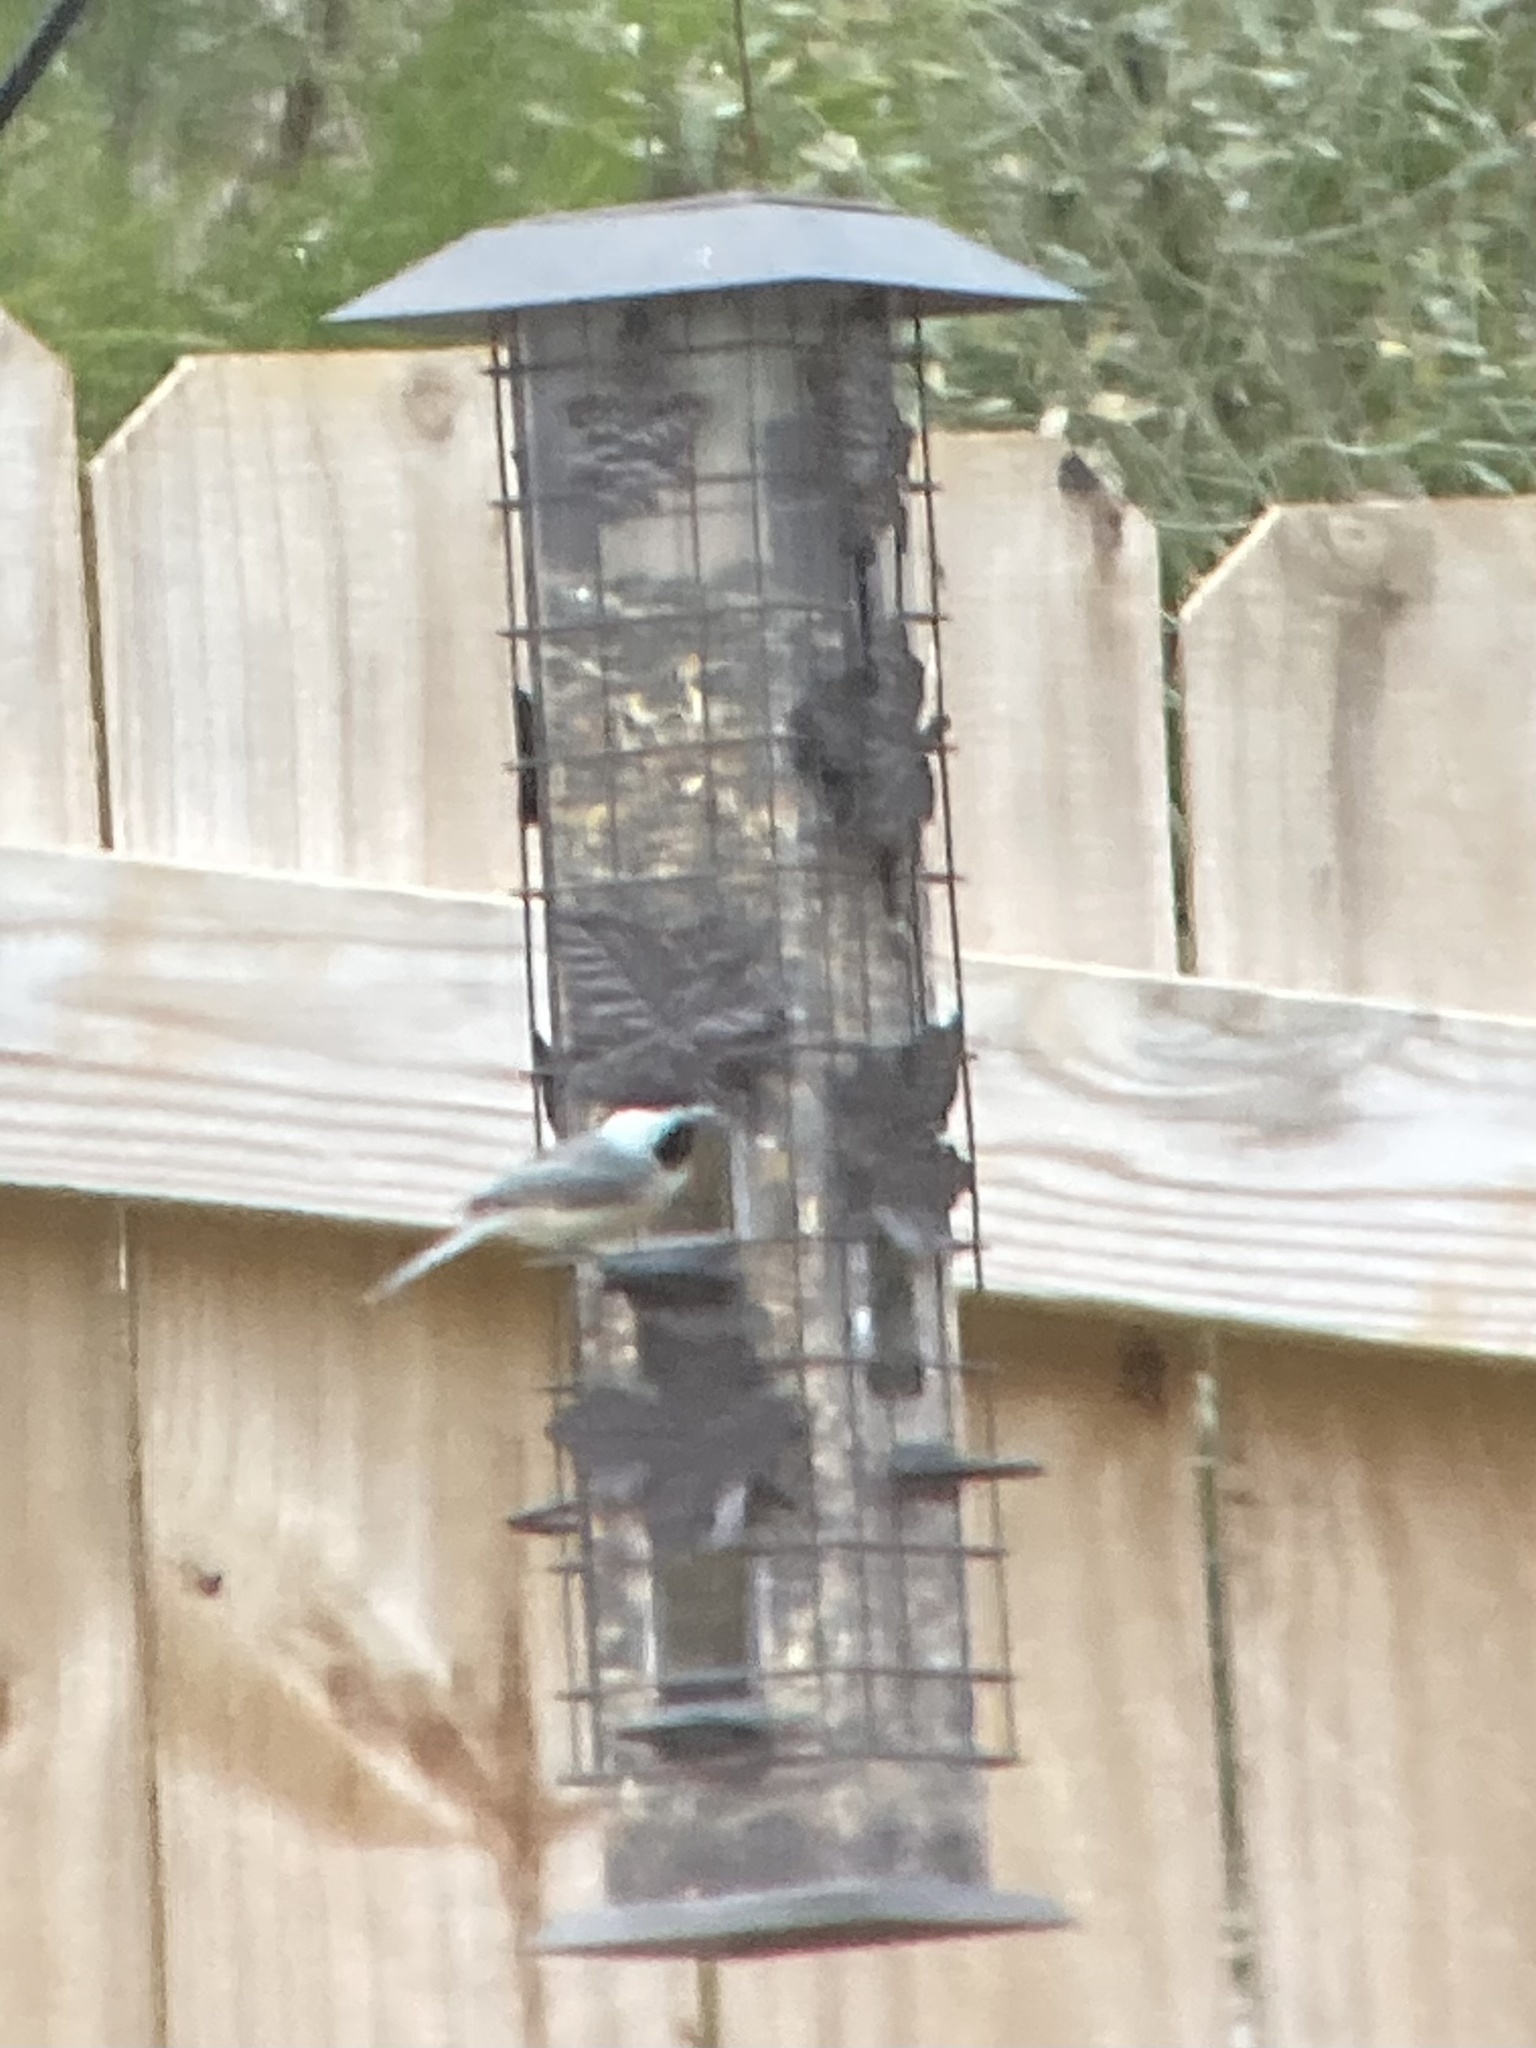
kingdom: Animalia
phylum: Chordata
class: Aves
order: Passeriformes
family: Paridae
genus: Poecile
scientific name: Poecile carolinensis
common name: Carolina chickadee
